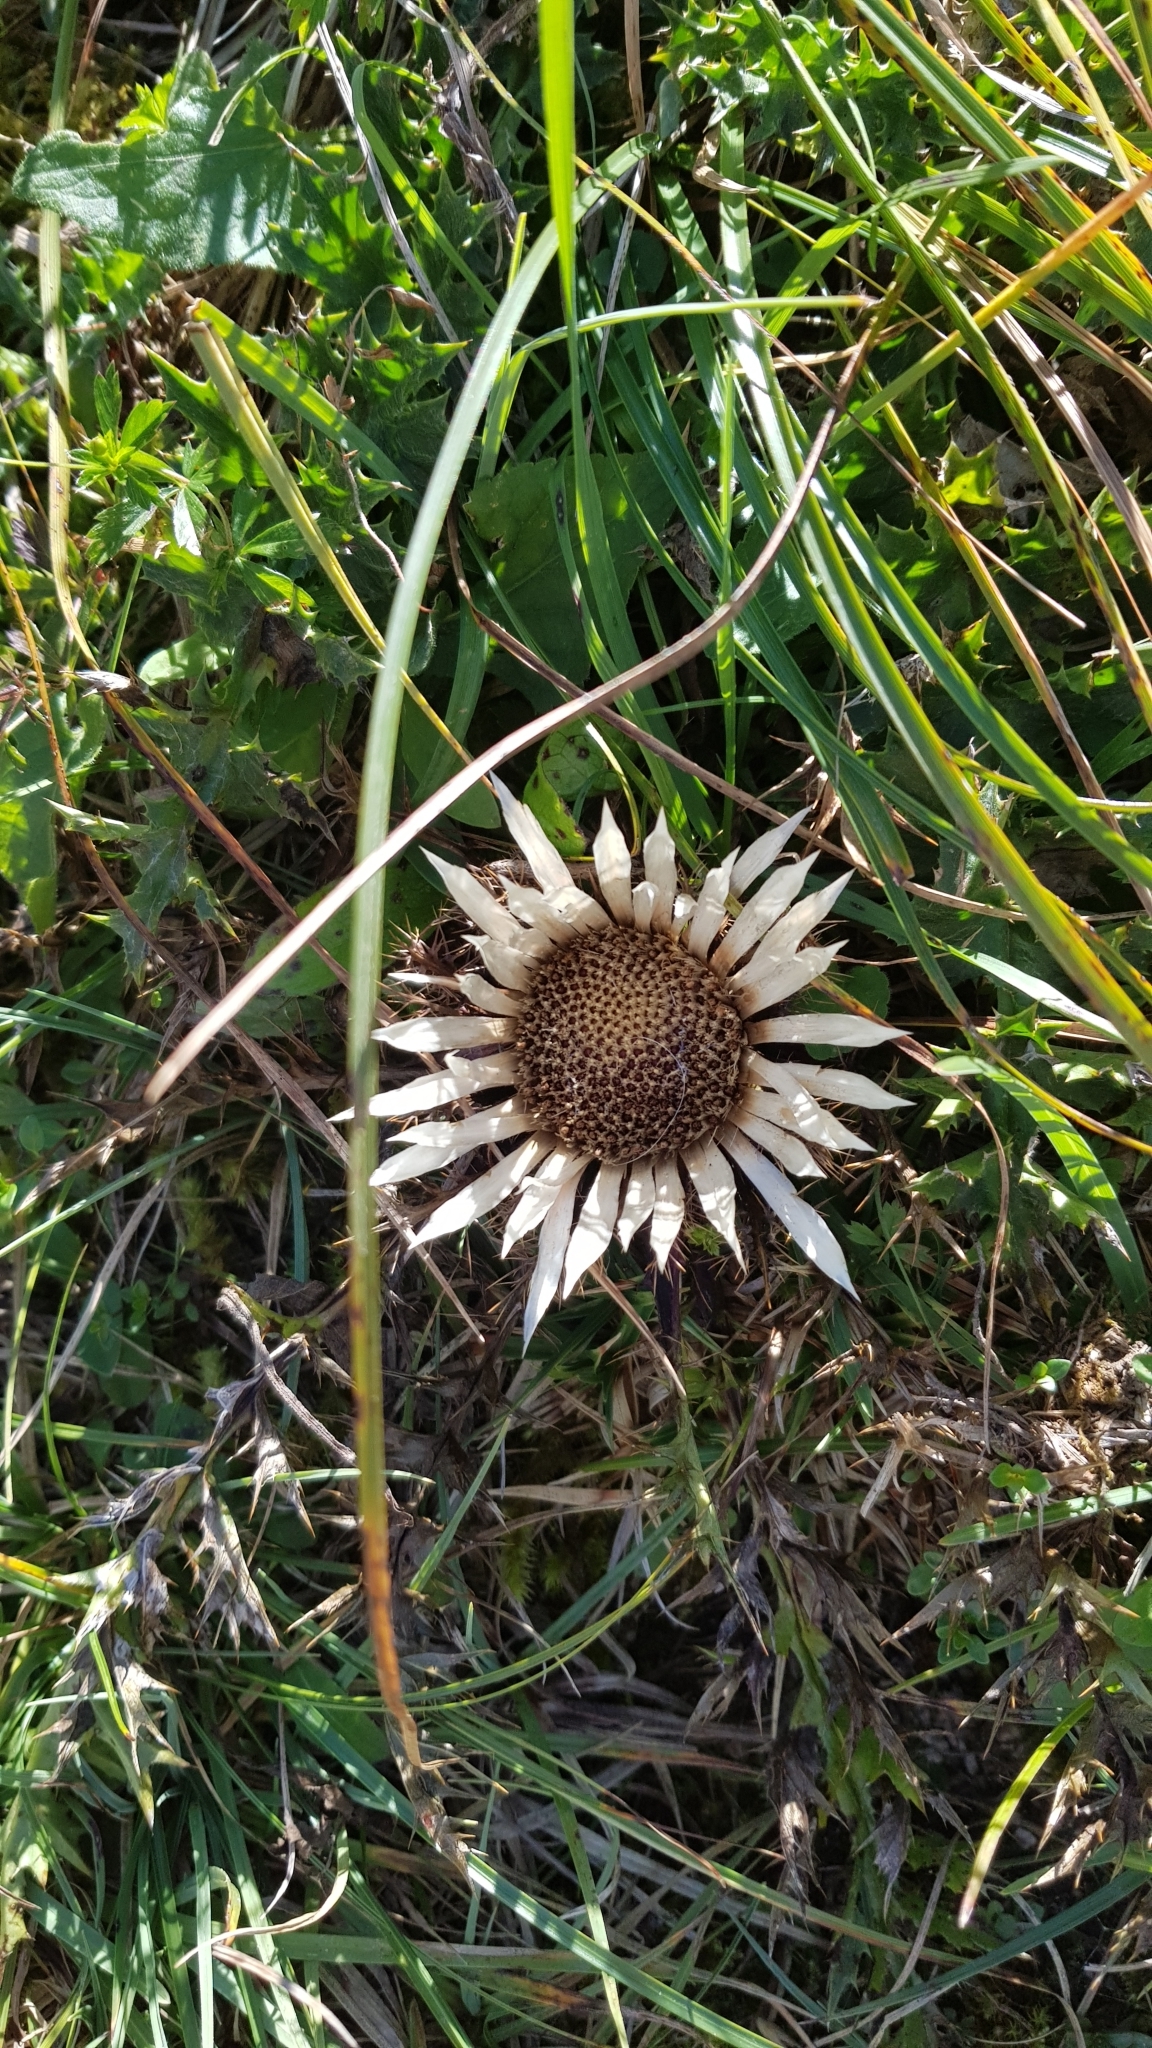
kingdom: Plantae
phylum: Tracheophyta
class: Magnoliopsida
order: Asterales
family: Asteraceae
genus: Carlina
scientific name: Carlina acaulis
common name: Stemless carline thistle
